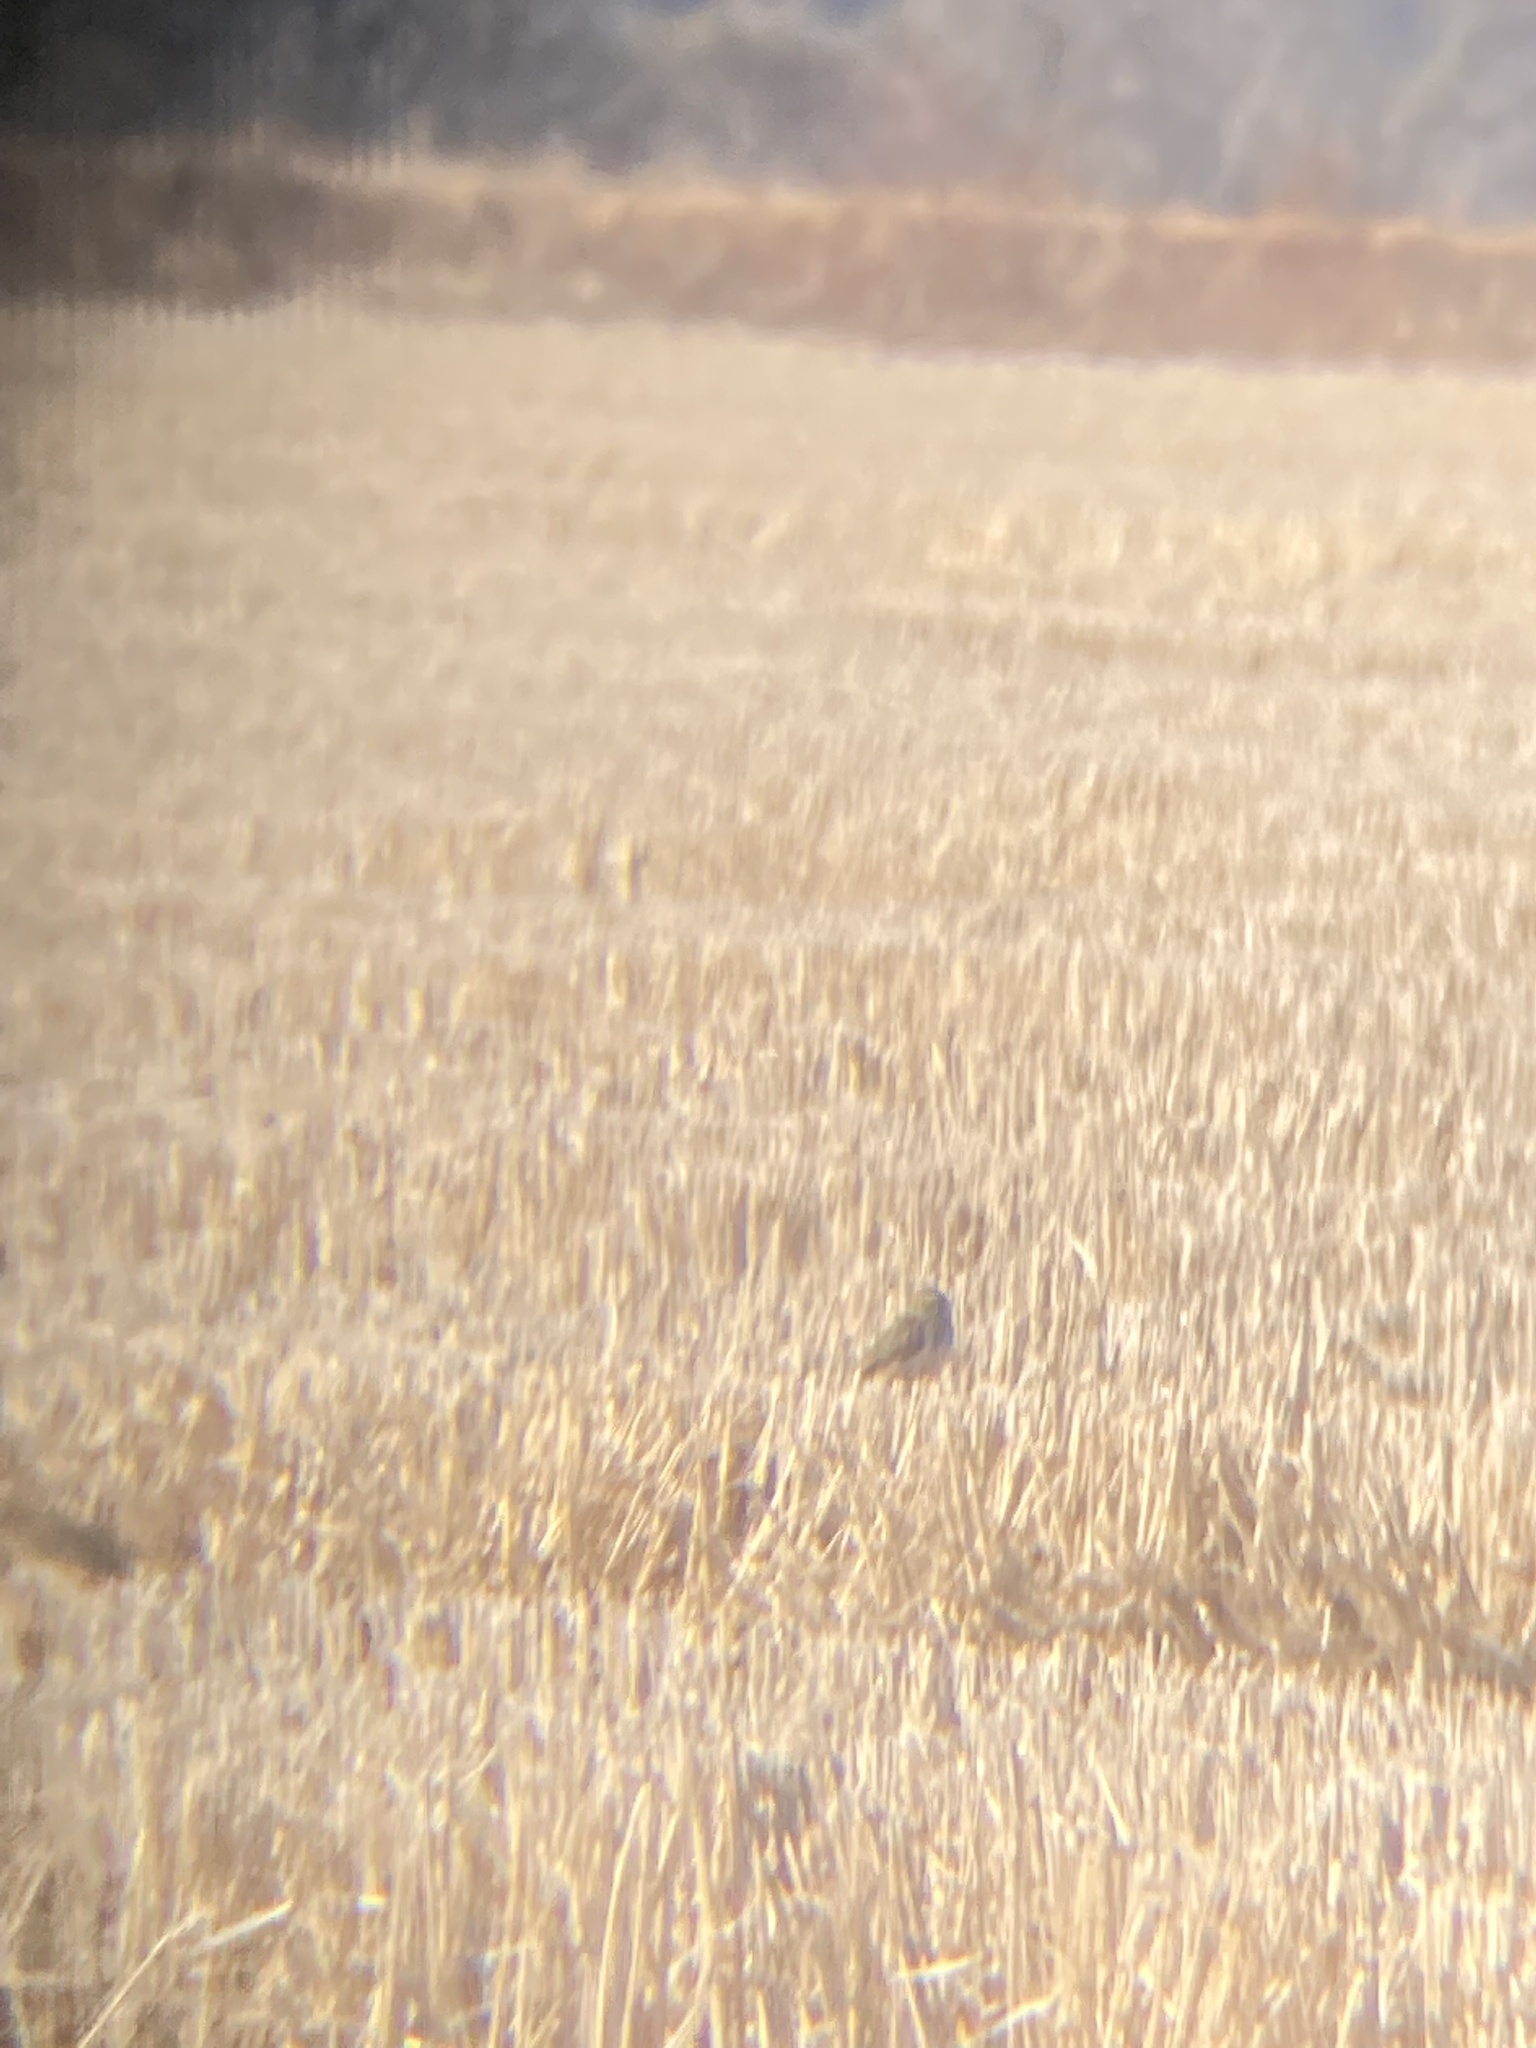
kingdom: Animalia
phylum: Chordata
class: Aves
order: Passeriformes
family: Calcariidae
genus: Calcarius
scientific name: Calcarius lapponicus
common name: Lapland longspur
